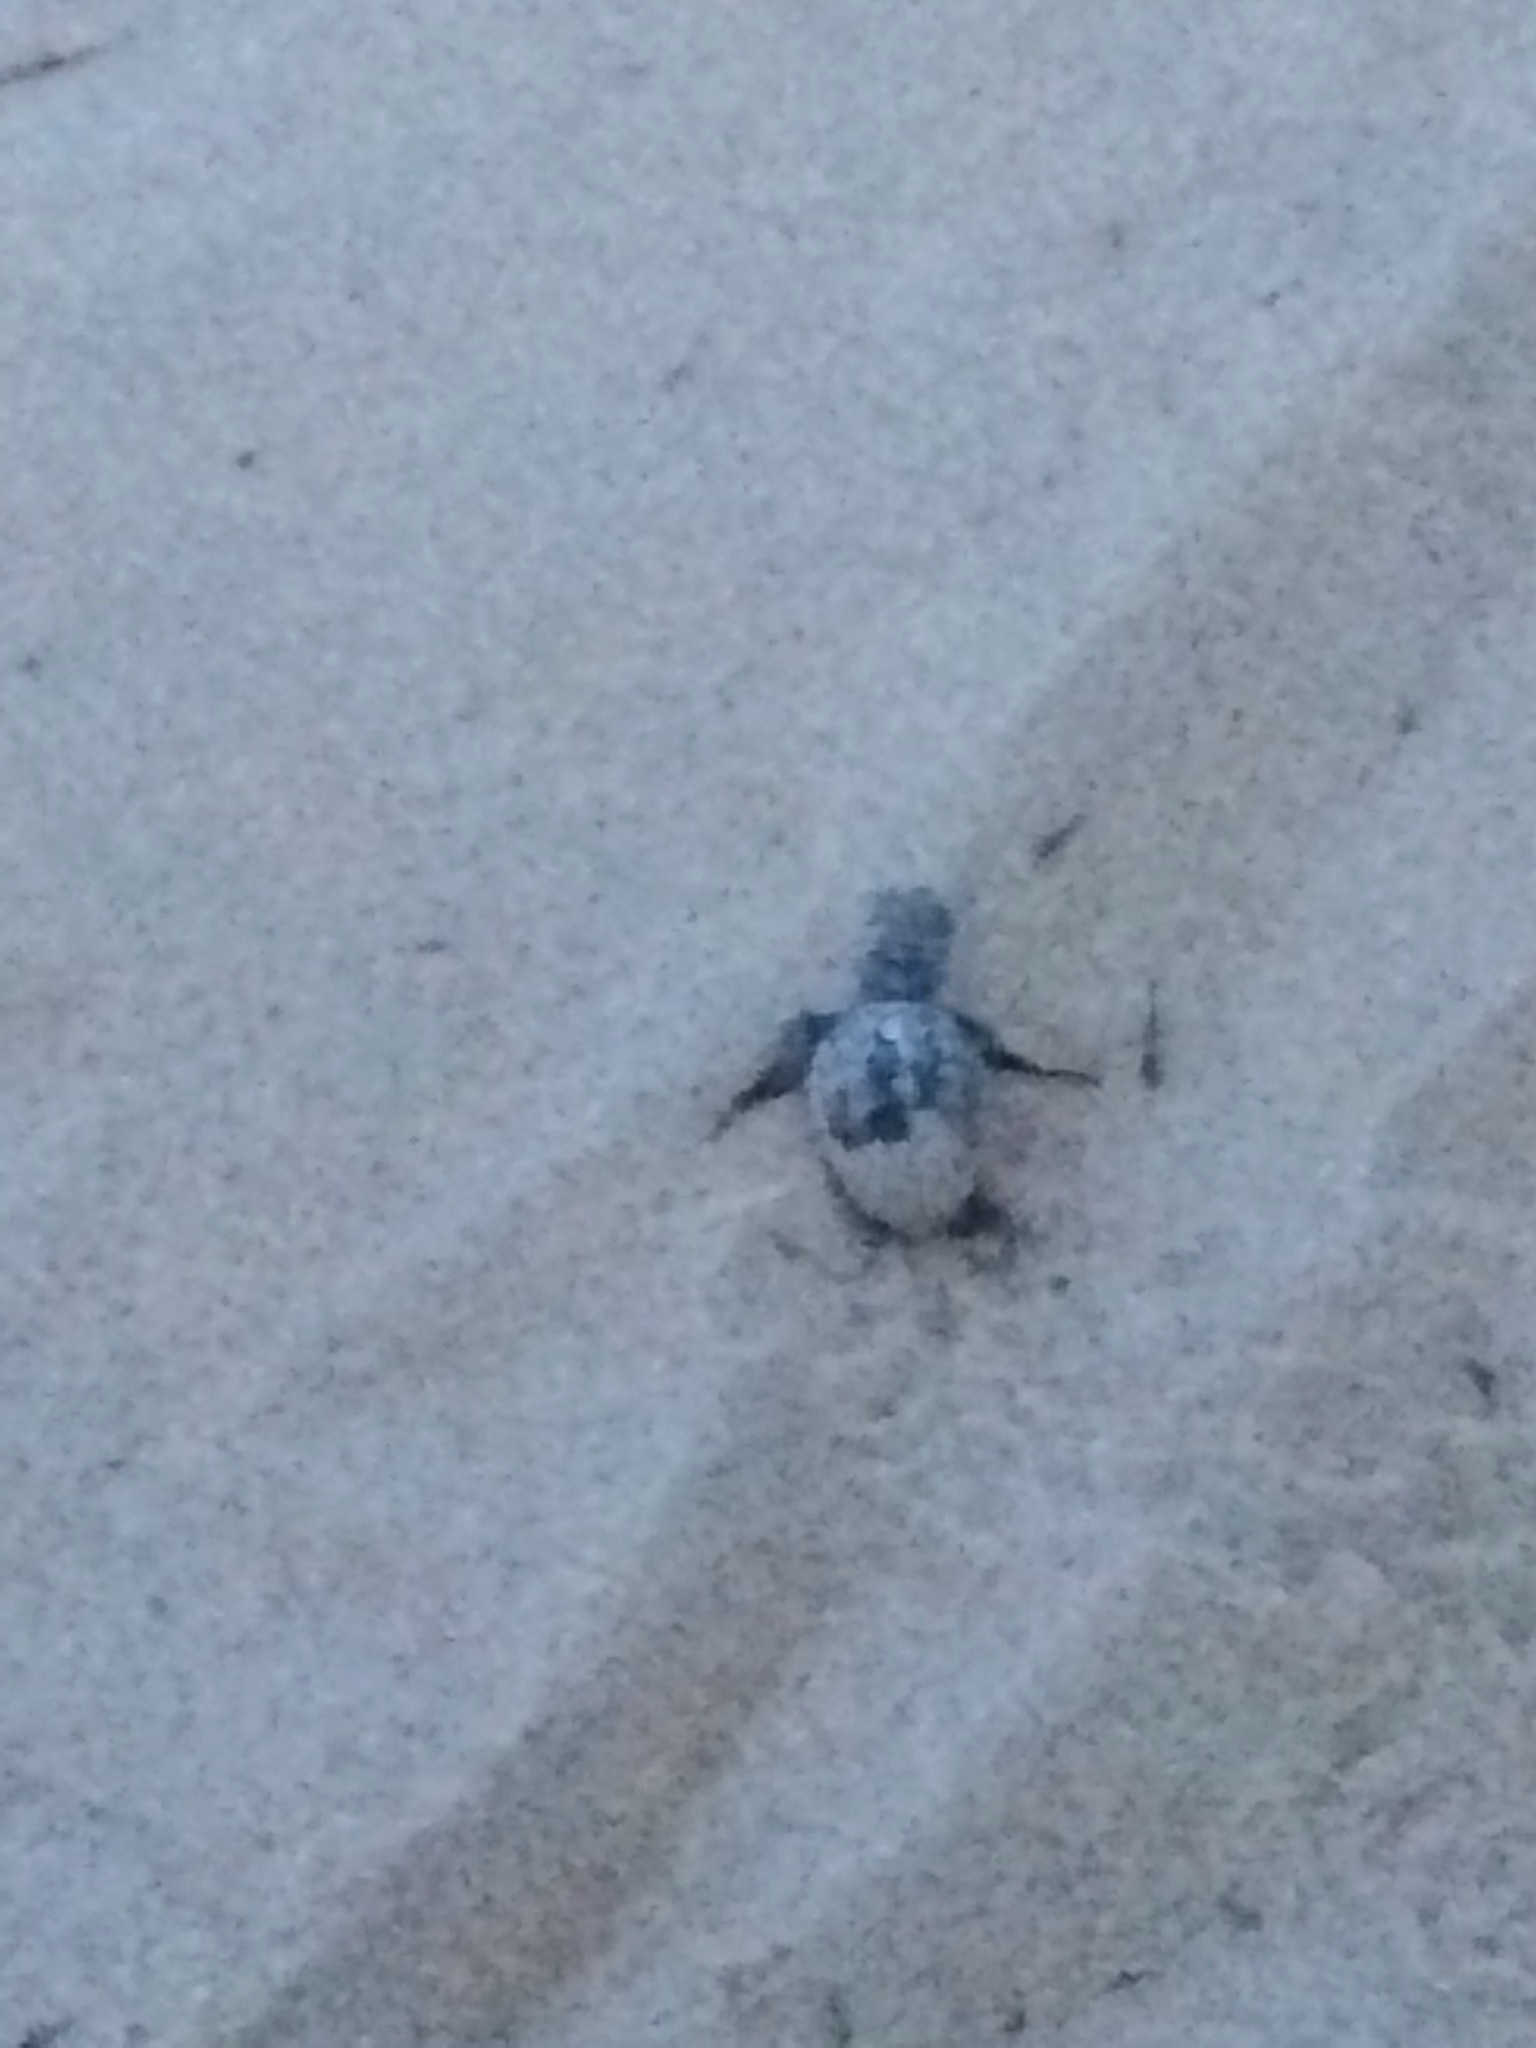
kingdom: Animalia
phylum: Chordata
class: Testudines
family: Cheloniidae
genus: Caretta
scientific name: Caretta caretta
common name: Loggerhead sea turtle
